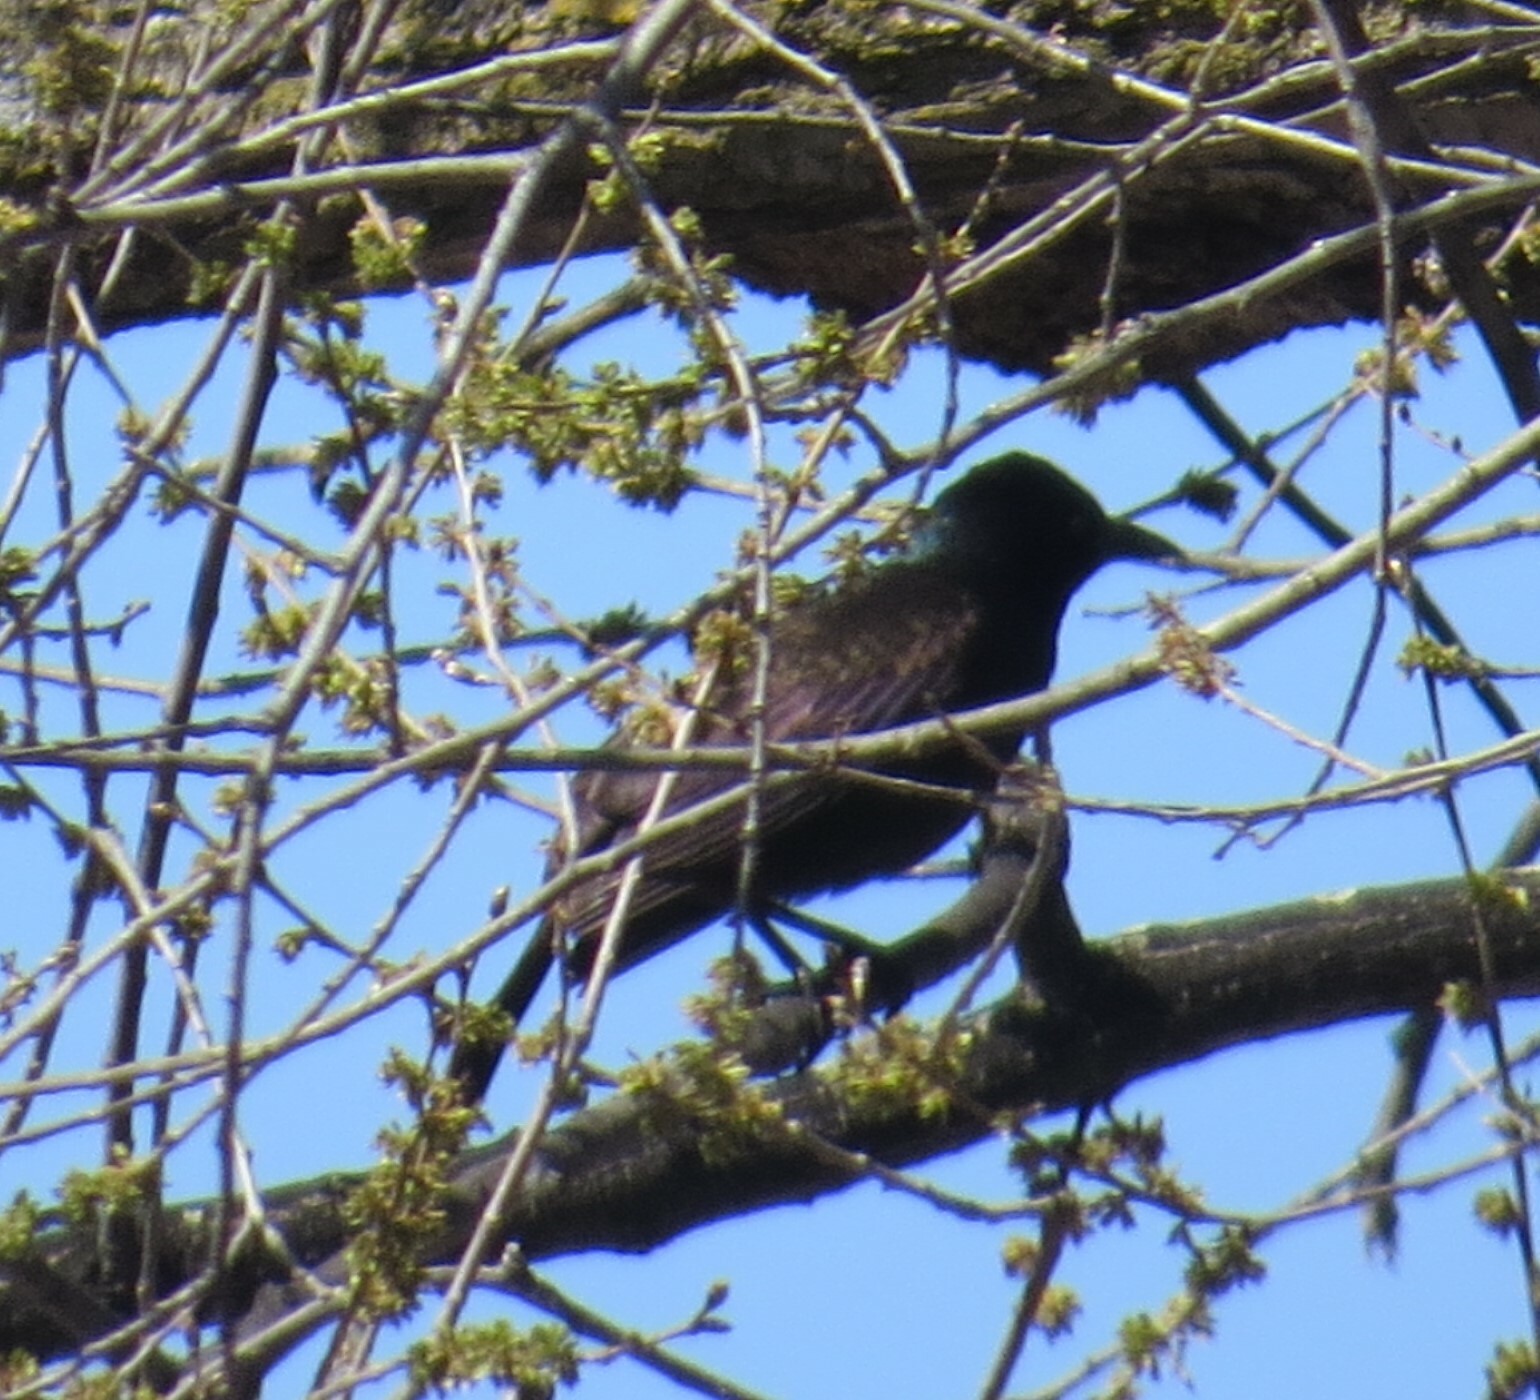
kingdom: Animalia
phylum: Chordata
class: Aves
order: Passeriformes
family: Icteridae
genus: Quiscalus
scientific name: Quiscalus quiscula
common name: Common grackle
